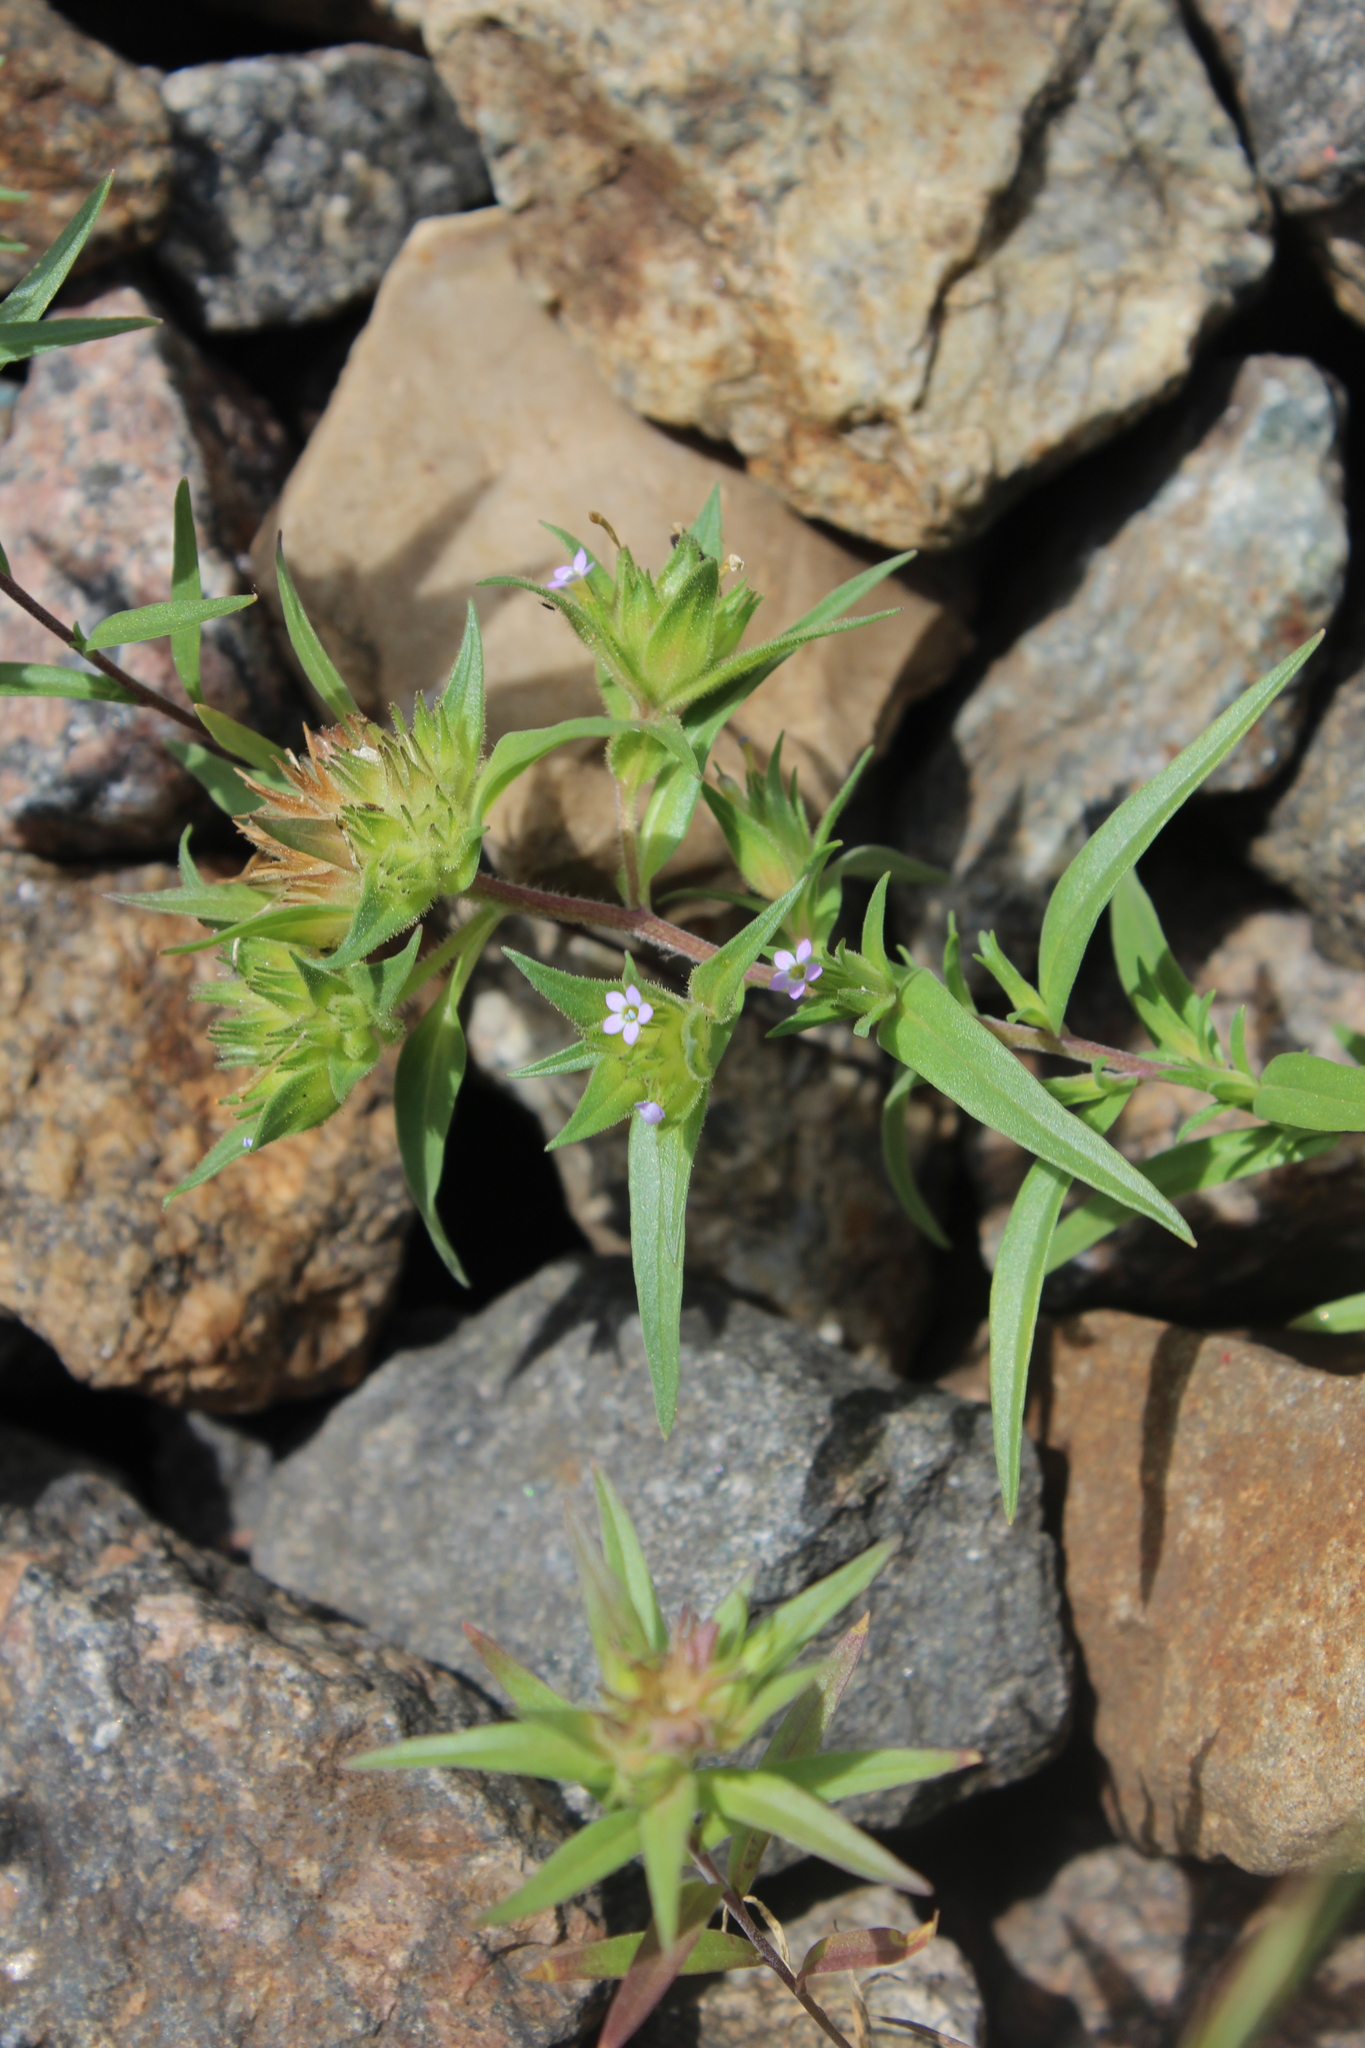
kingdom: Plantae
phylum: Tracheophyta
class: Magnoliopsida
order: Ericales
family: Polemoniaceae
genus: Collomia
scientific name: Collomia linearis
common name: Tiny trumpet
